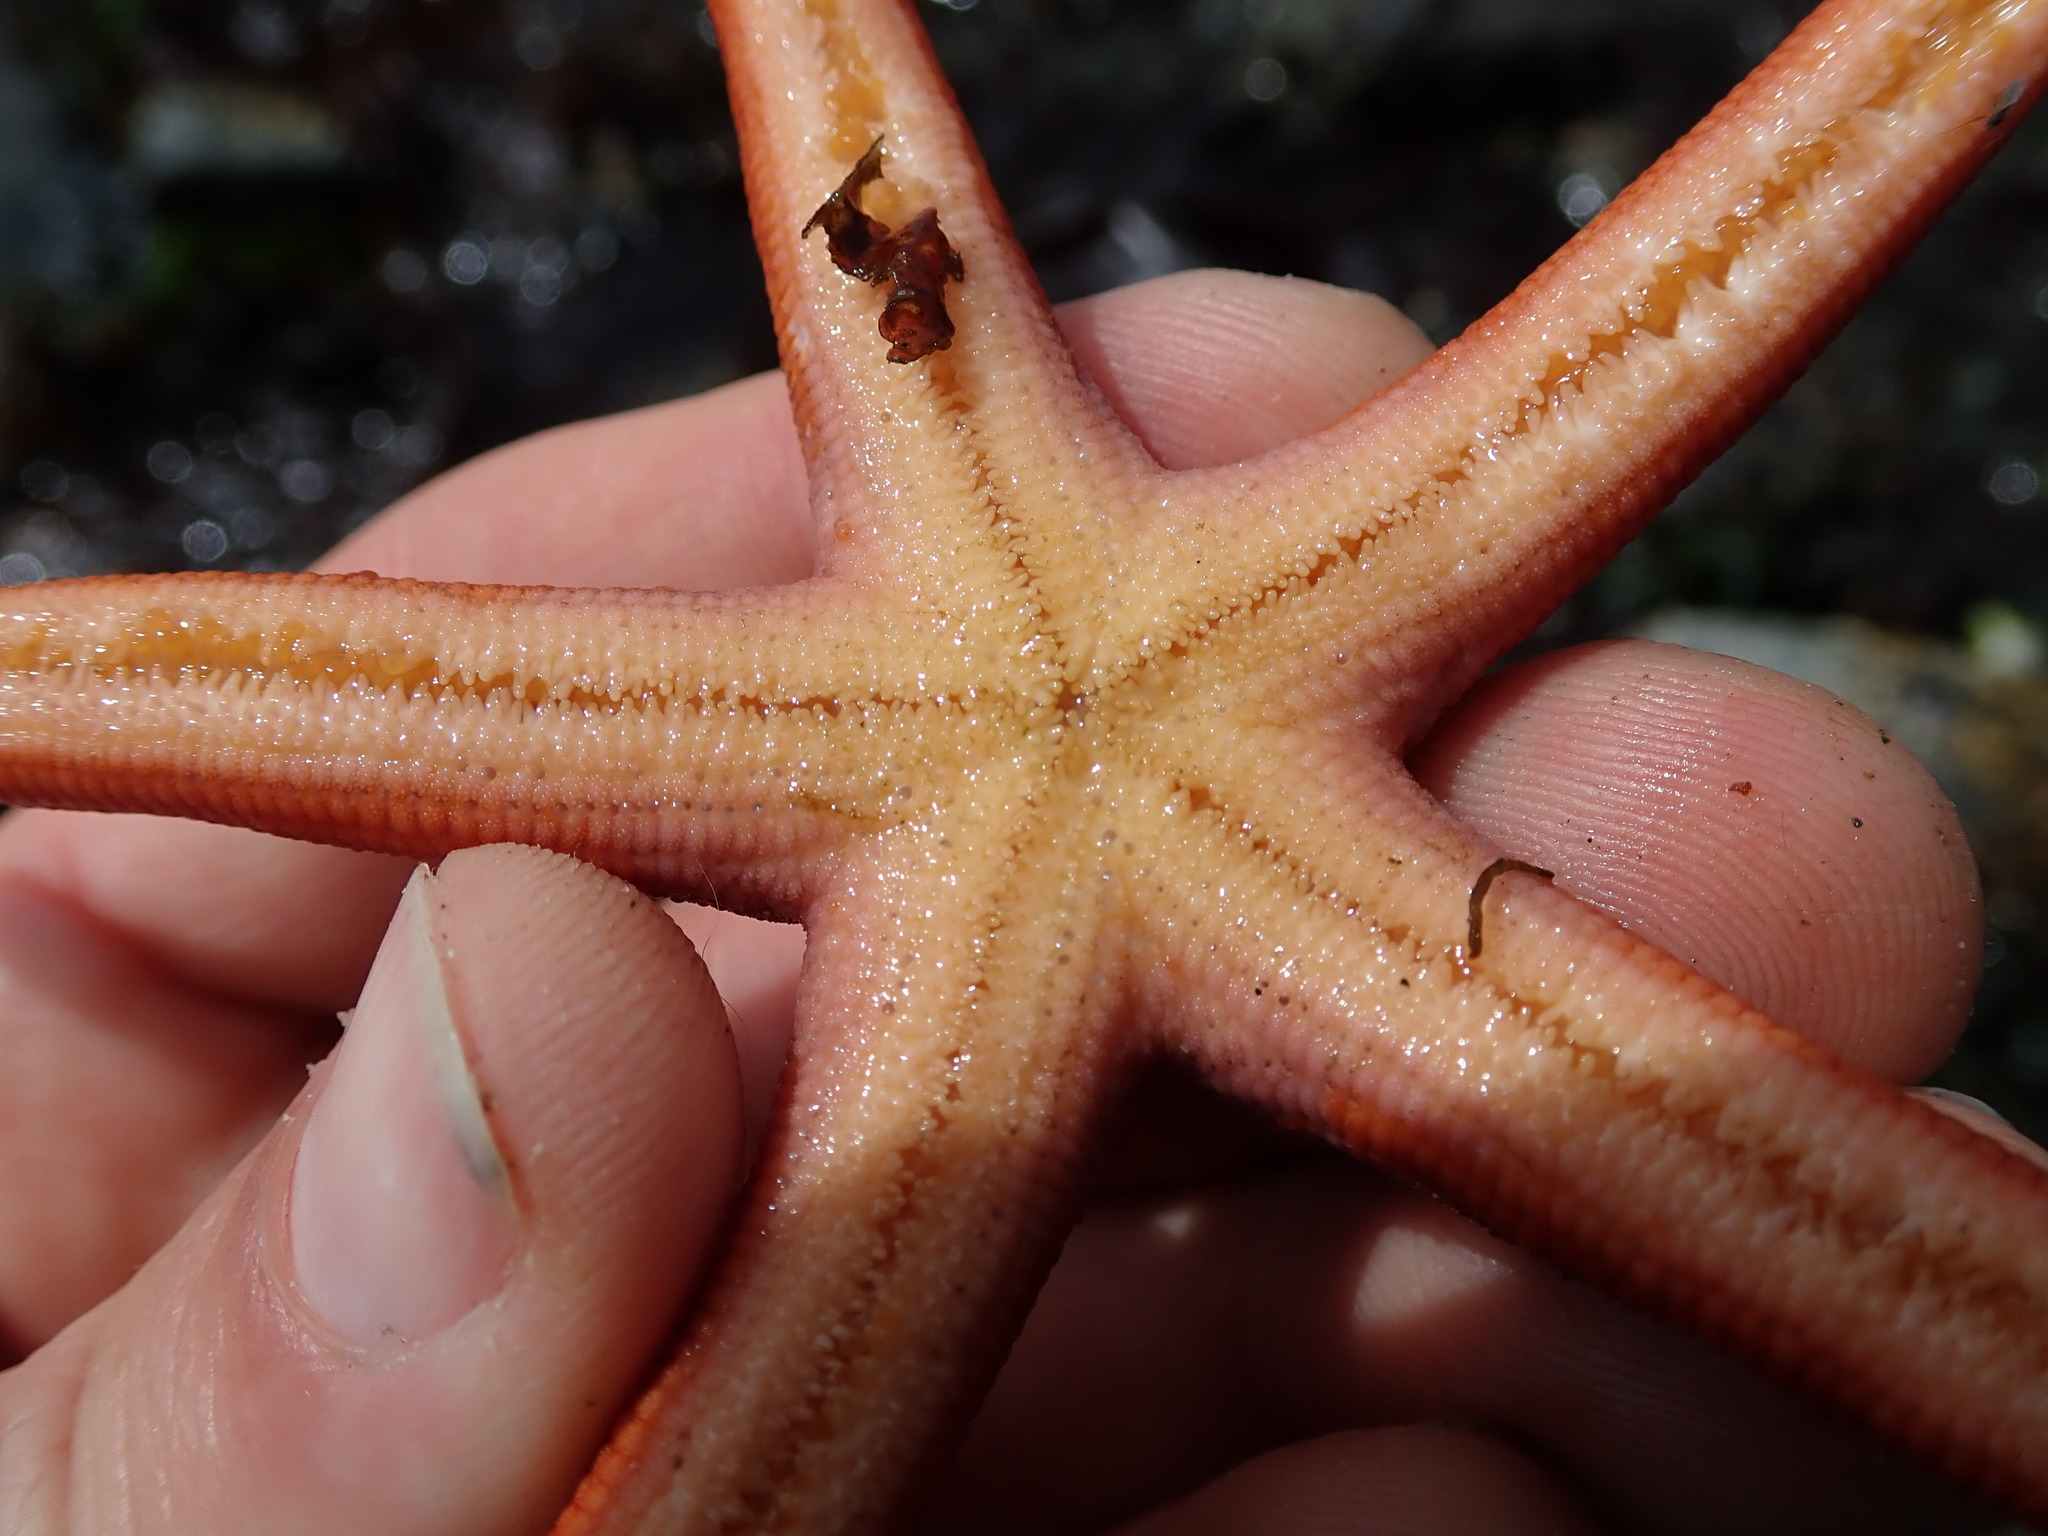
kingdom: Animalia
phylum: Echinodermata
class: Asteroidea
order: Spinulosida
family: Echinasteridae
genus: Henricia
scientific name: Henricia
